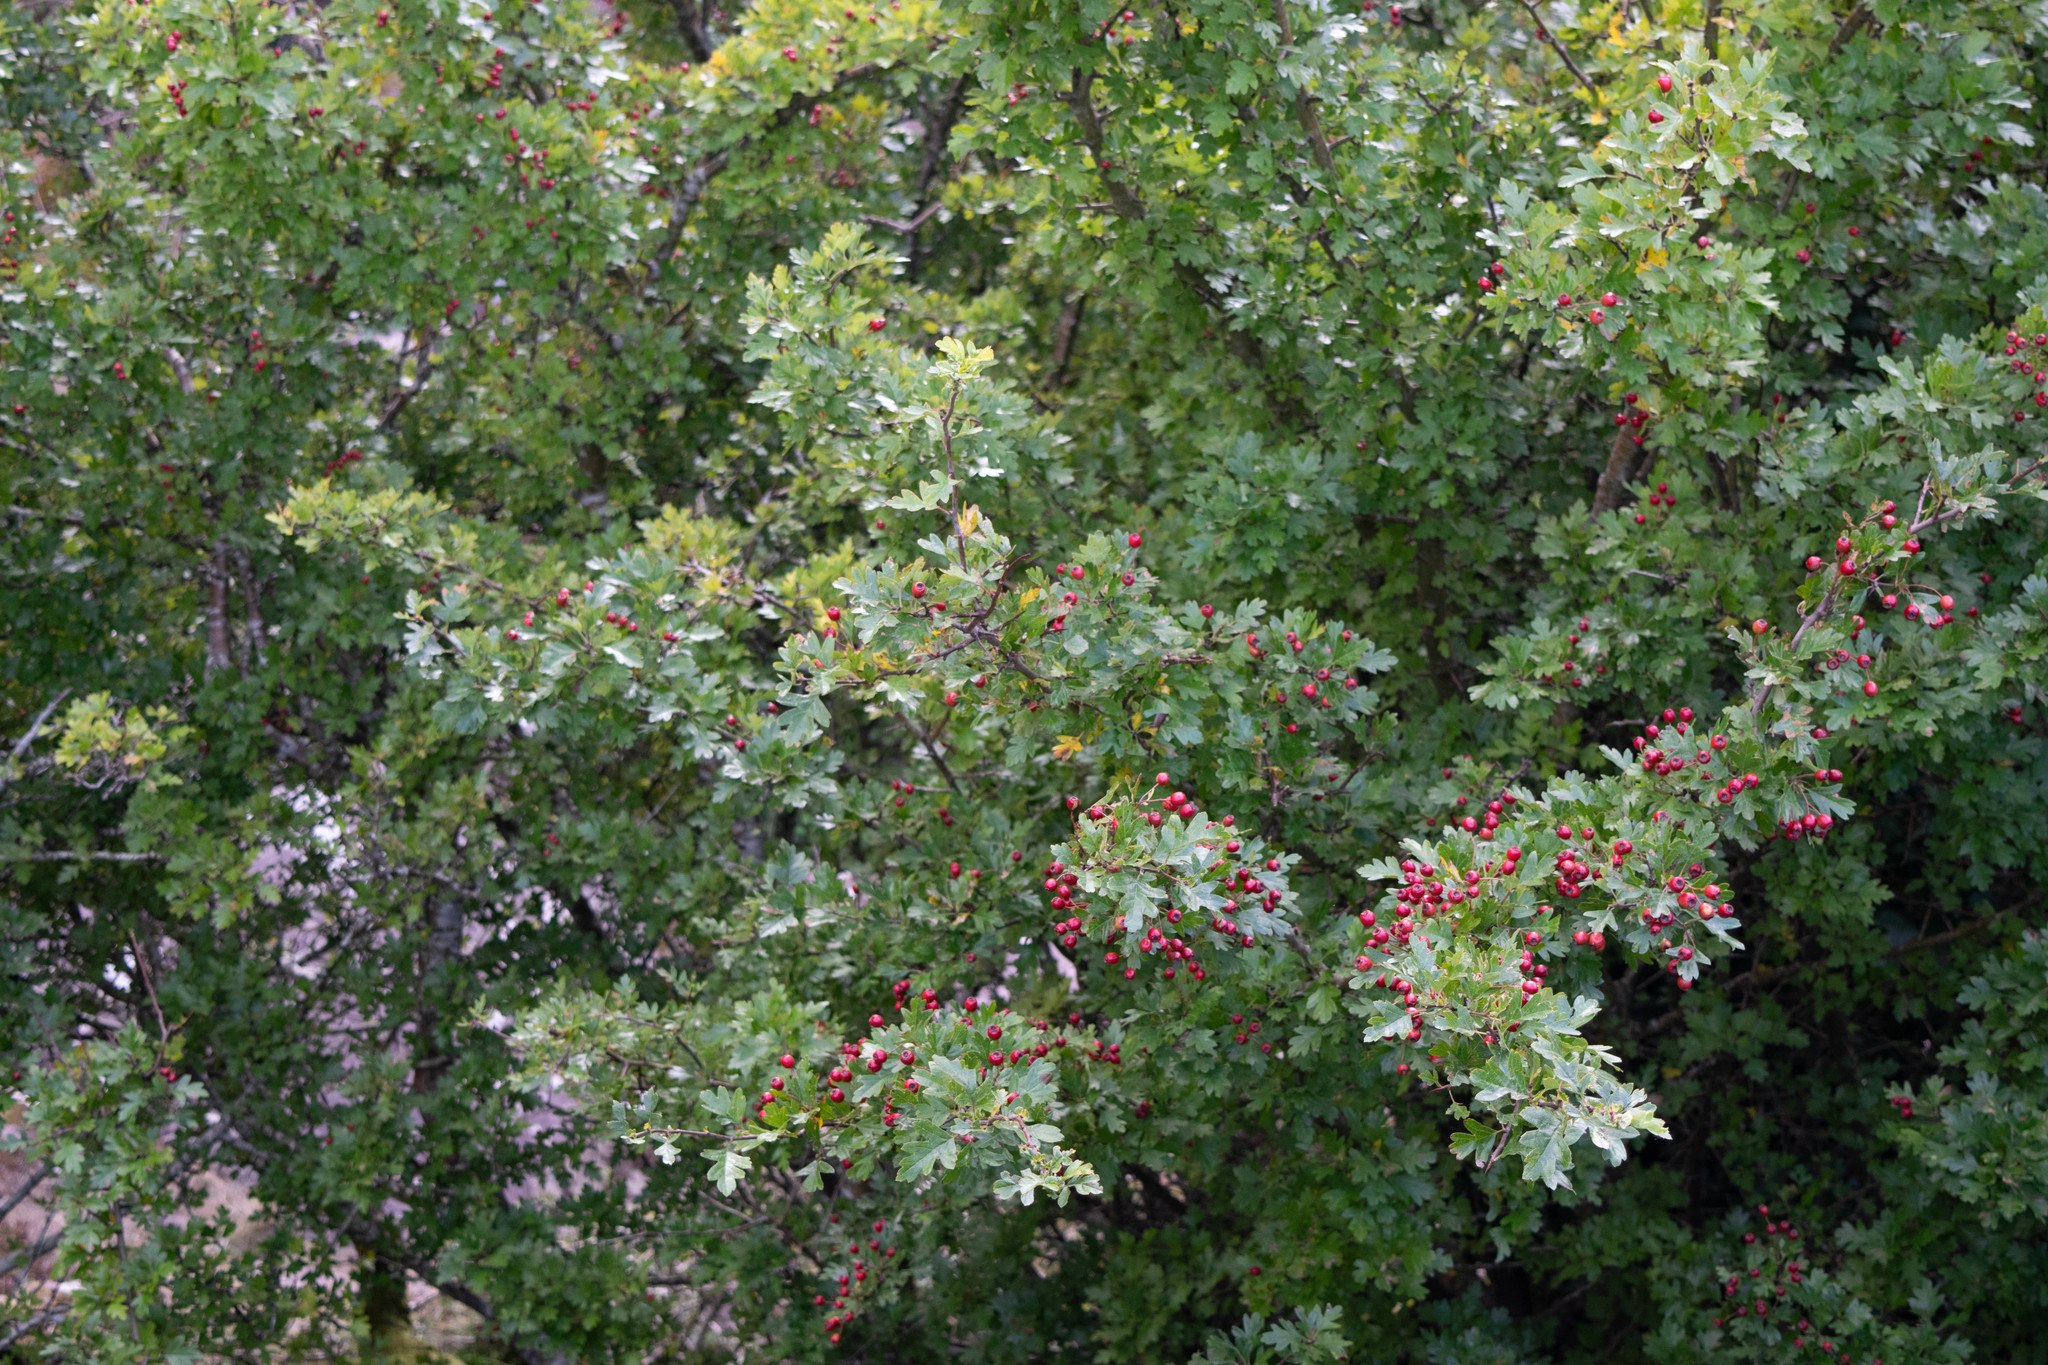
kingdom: Plantae
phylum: Tracheophyta
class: Magnoliopsida
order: Rosales
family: Rosaceae
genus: Crataegus
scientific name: Crataegus monogyna
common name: Hawthorn
